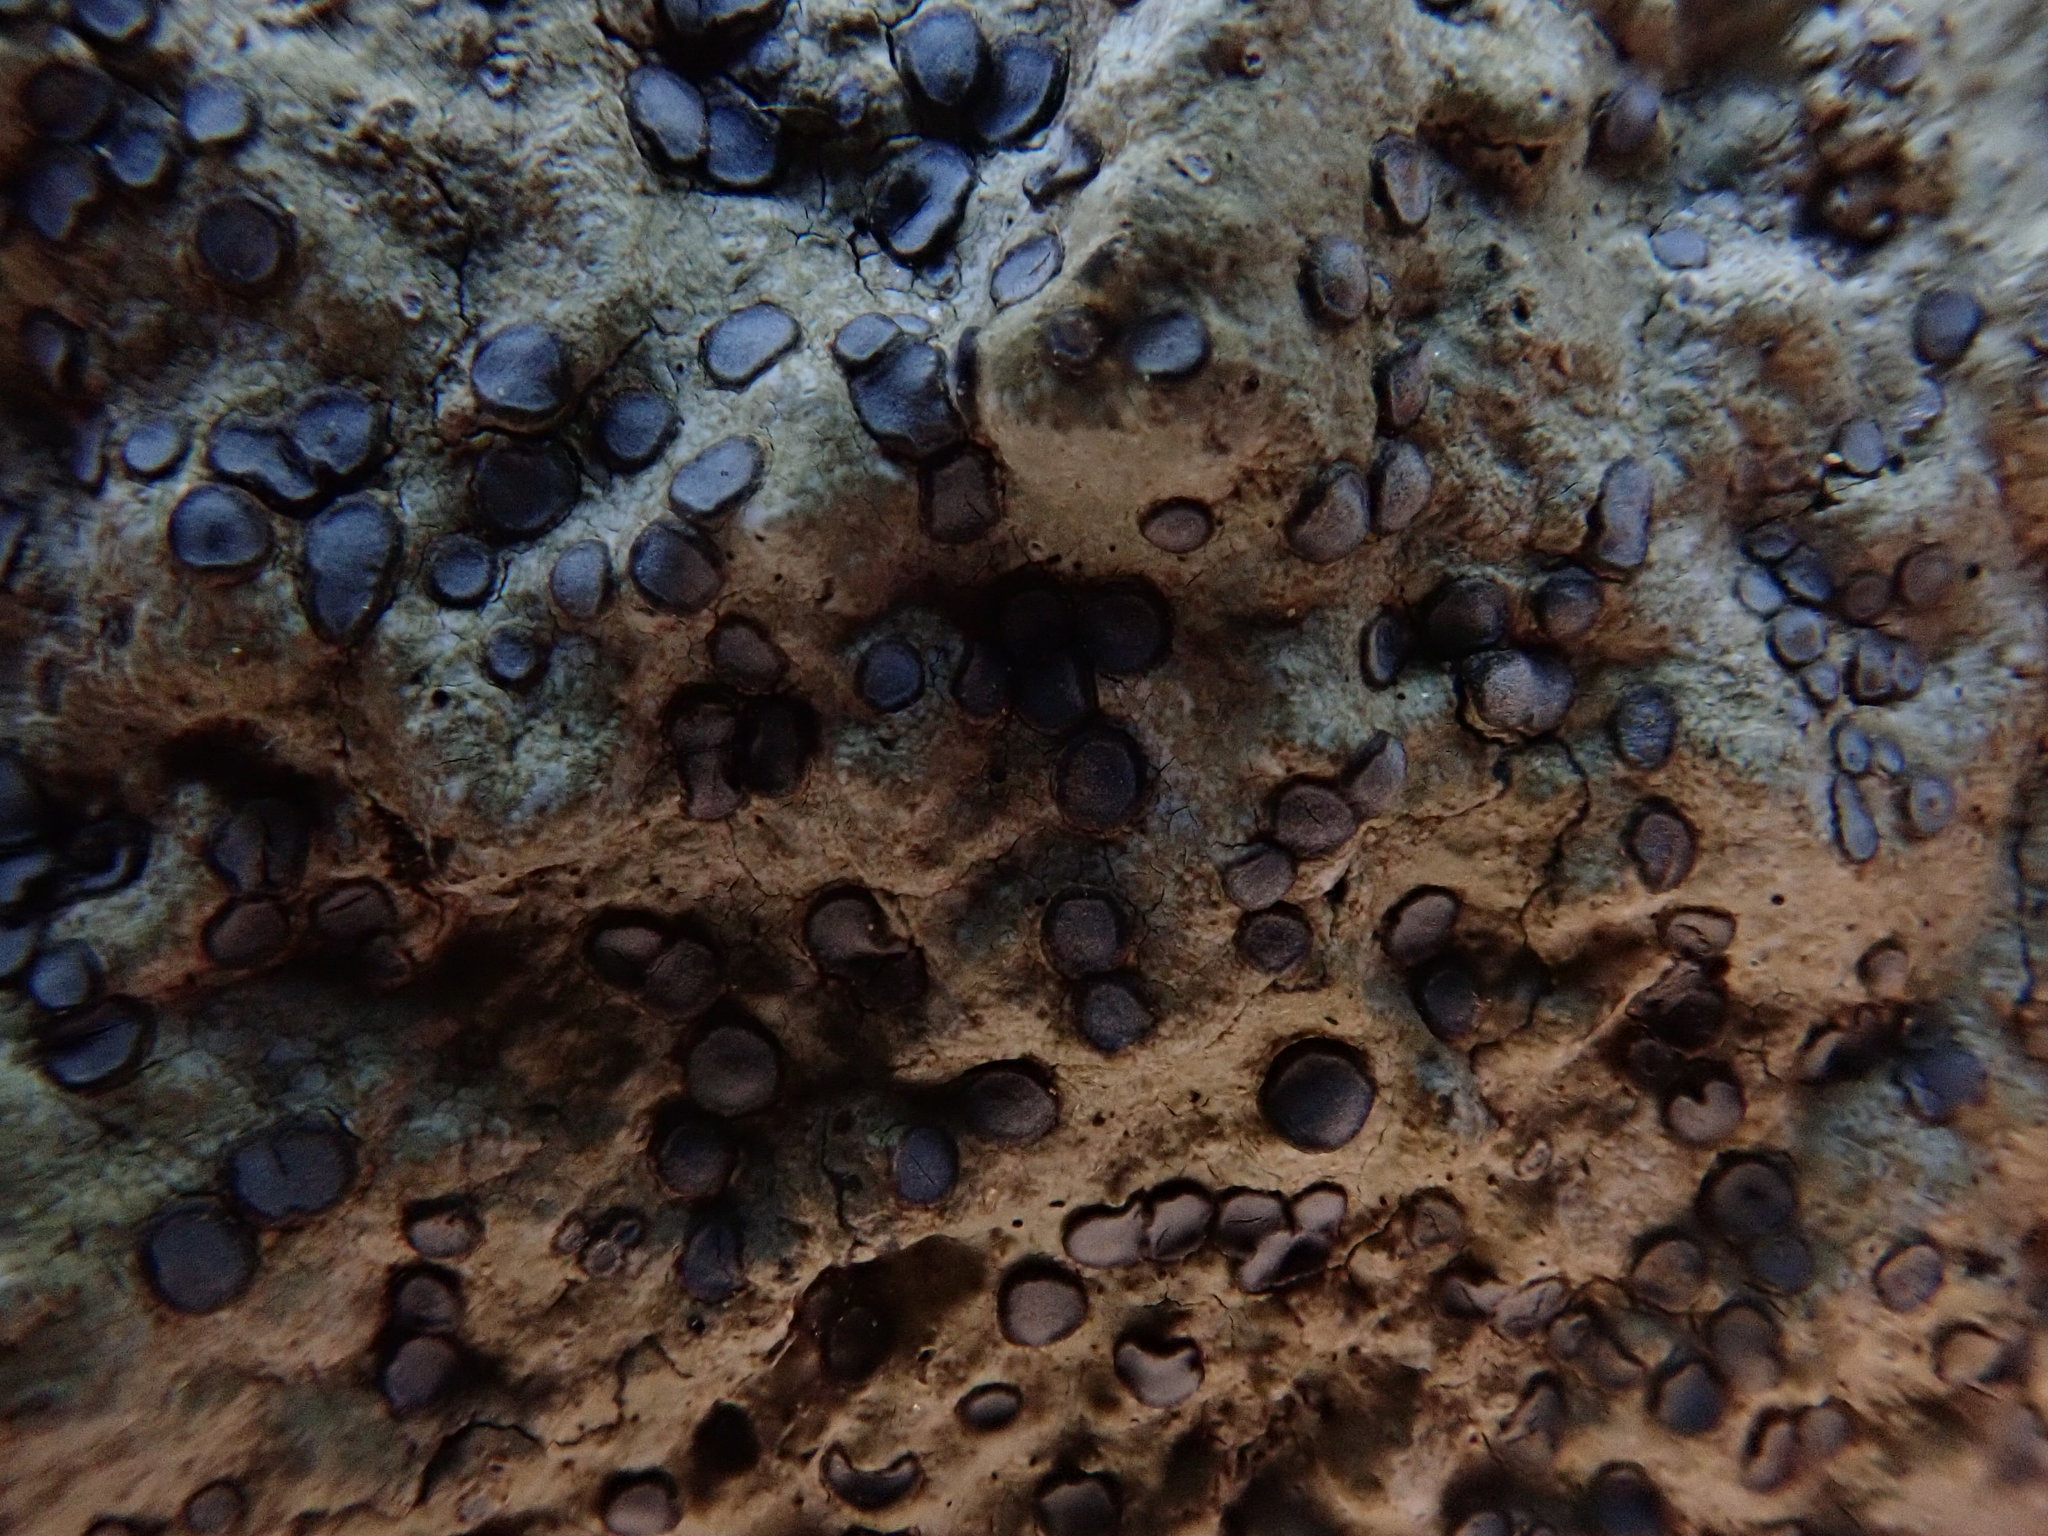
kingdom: Fungi
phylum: Ascomycota
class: Lecanoromycetes
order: Lecideales
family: Lecideaceae
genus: Porpidia
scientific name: Porpidia albocaerulescens
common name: Smokey-eyed boulder lichen
